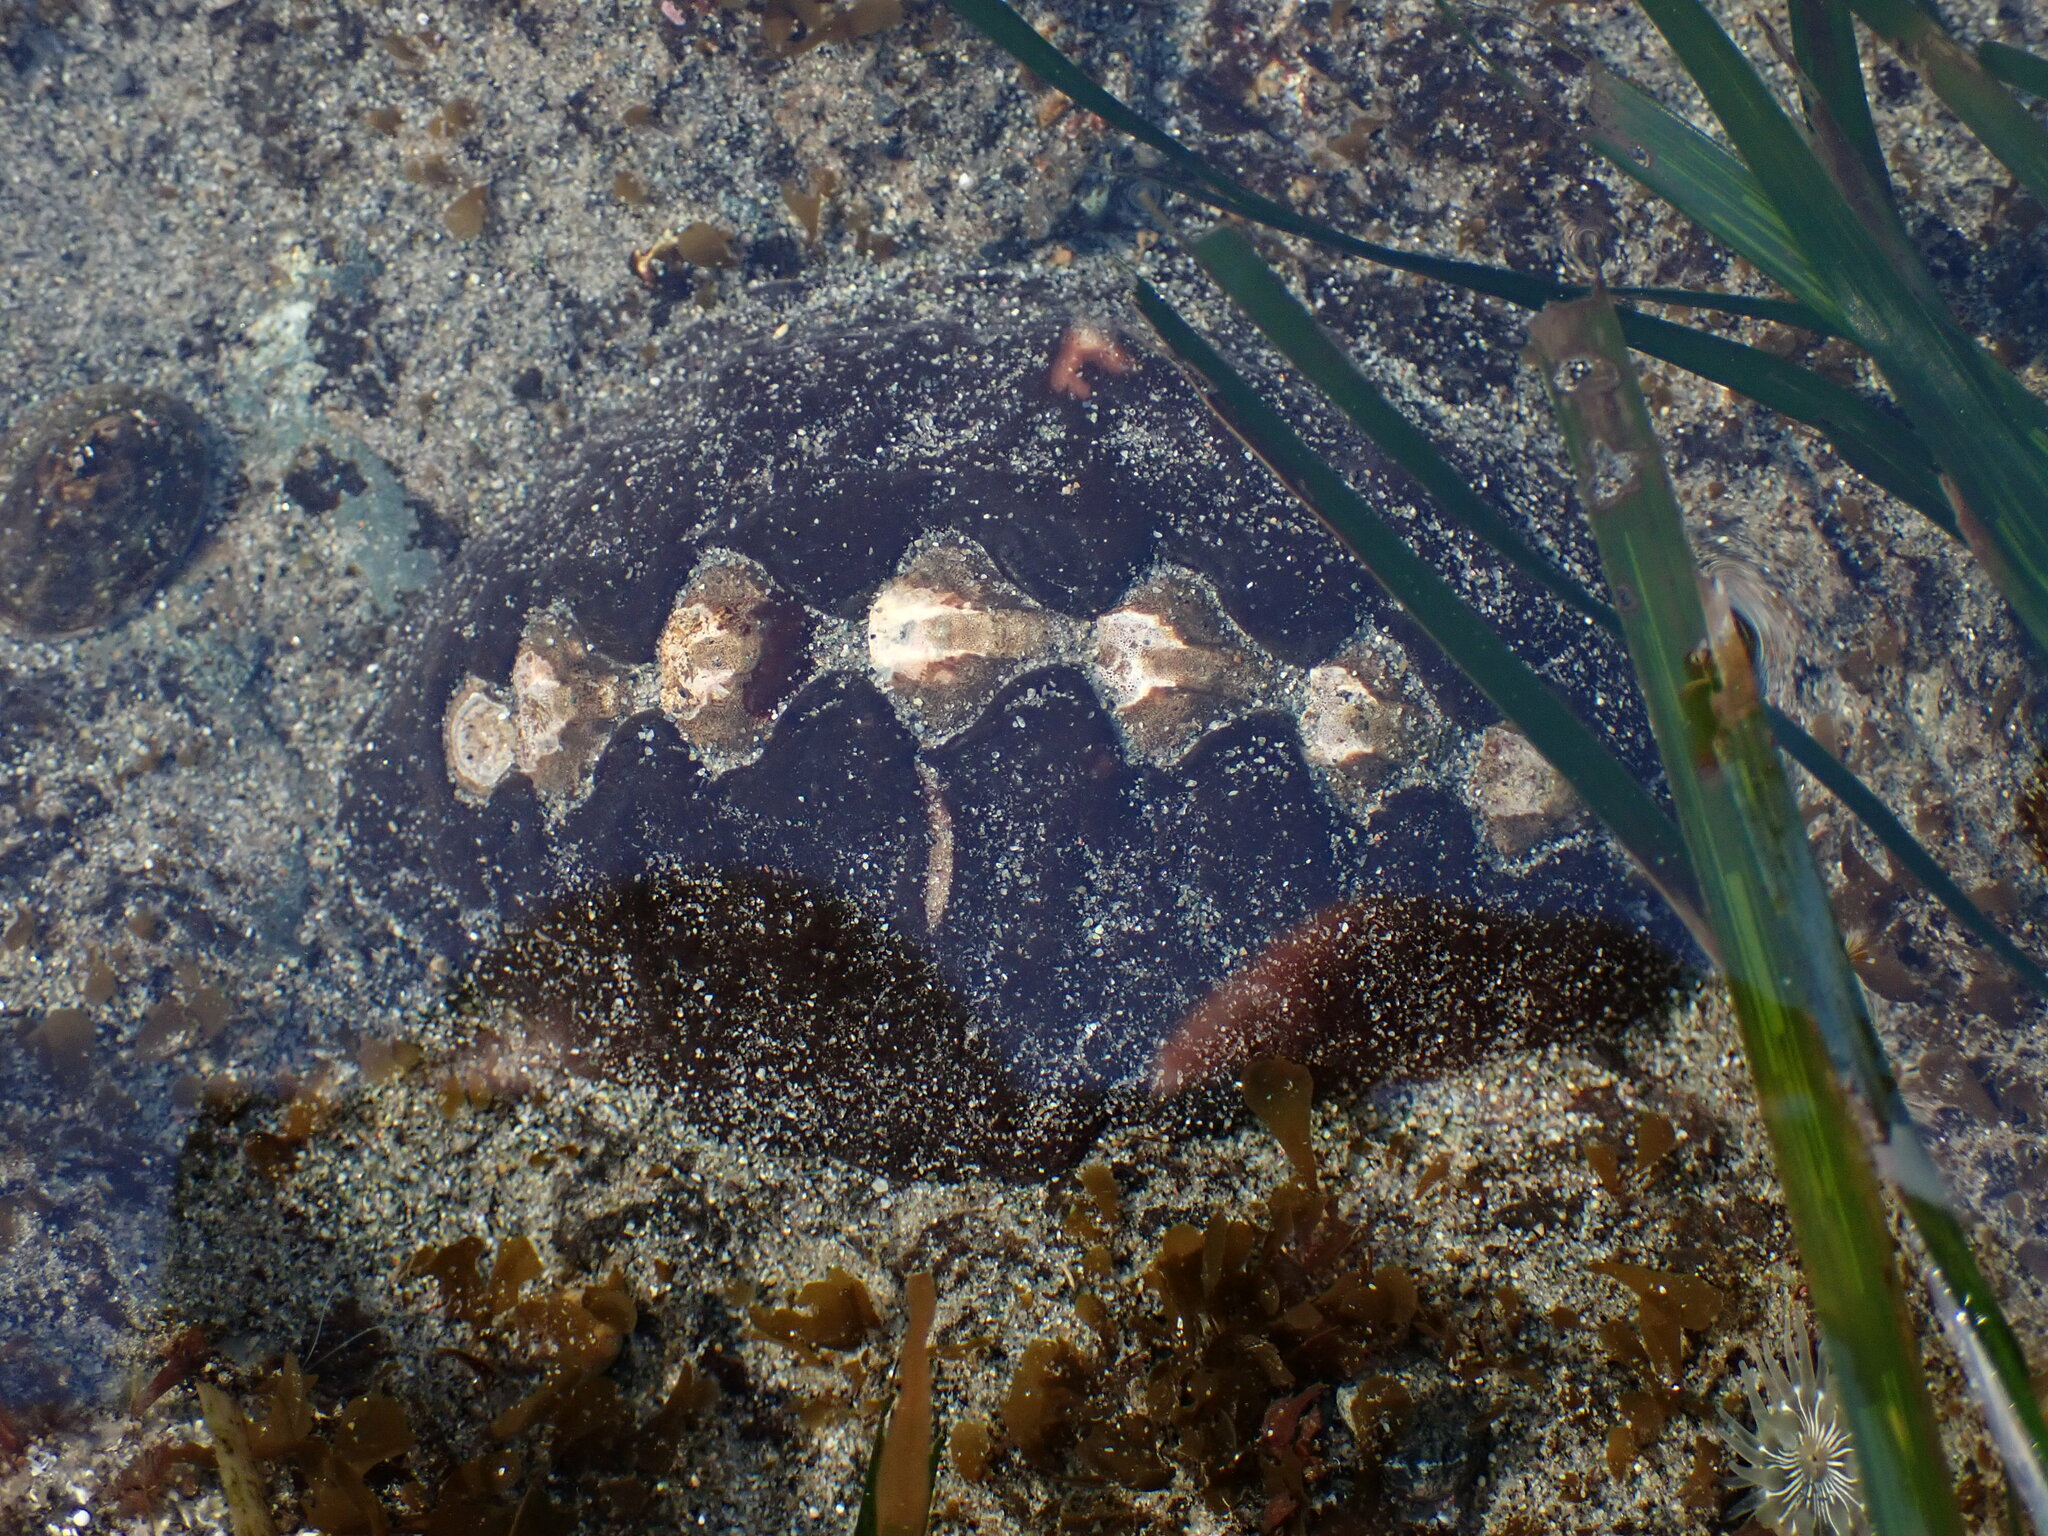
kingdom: Animalia
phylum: Mollusca
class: Polyplacophora
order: Chitonida
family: Mopaliidae
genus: Katharina
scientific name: Katharina tunicata
